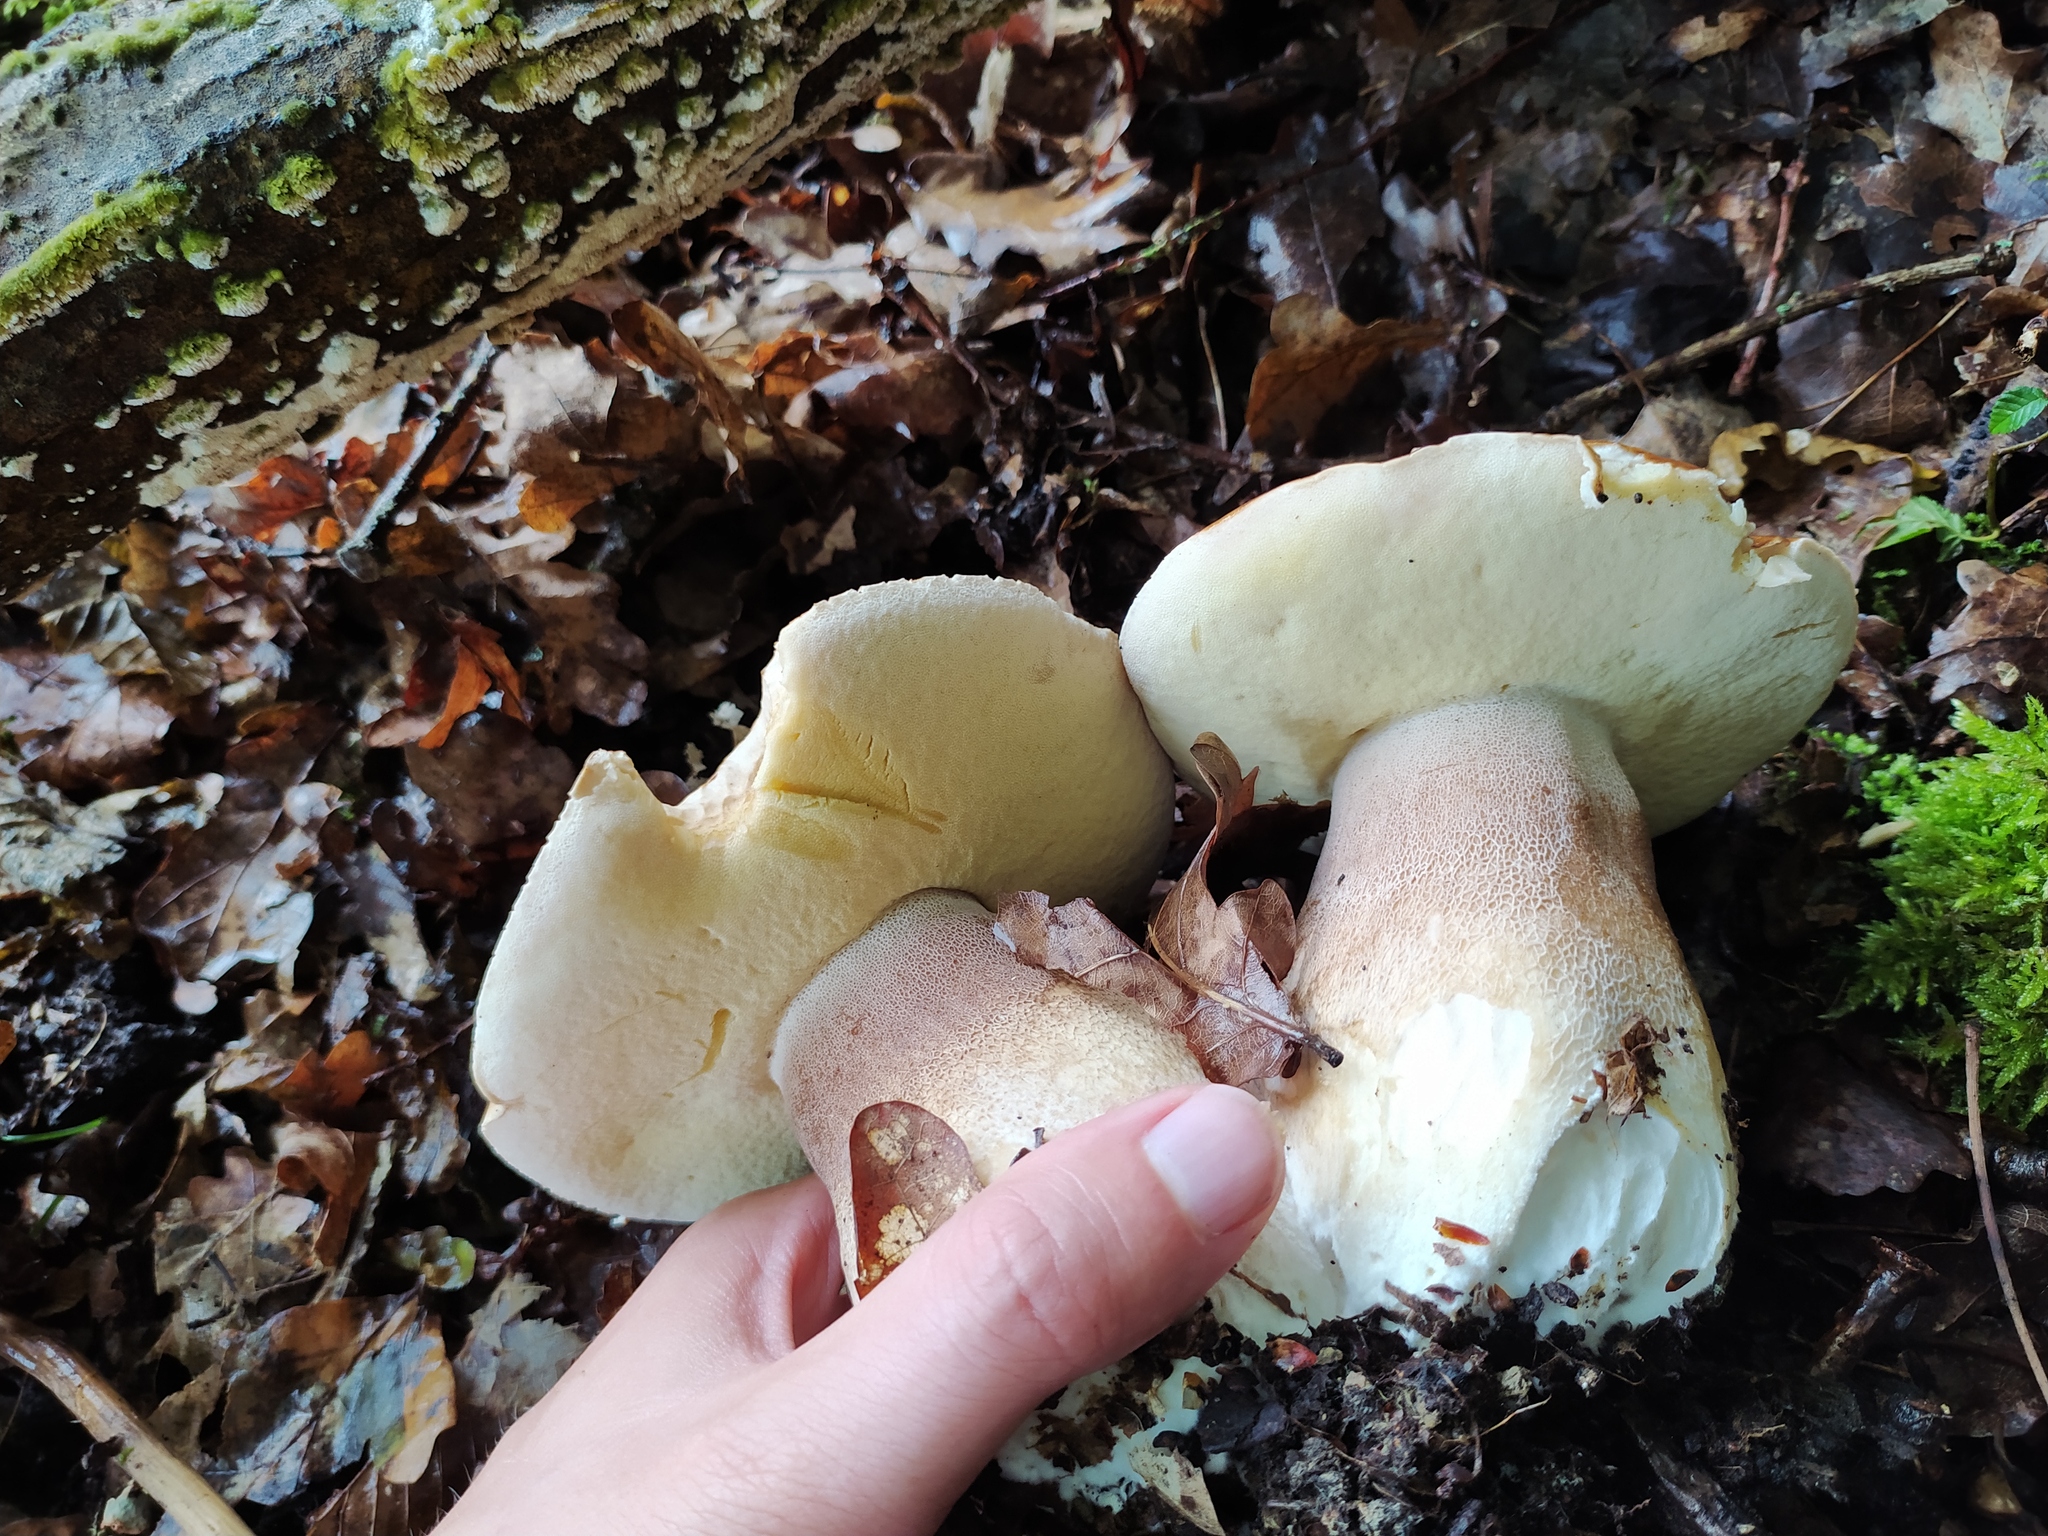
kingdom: Fungi
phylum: Basidiomycota
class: Agaricomycetes
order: Boletales
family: Boletaceae
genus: Boletus
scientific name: Boletus reticulatus
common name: Summer bolete
